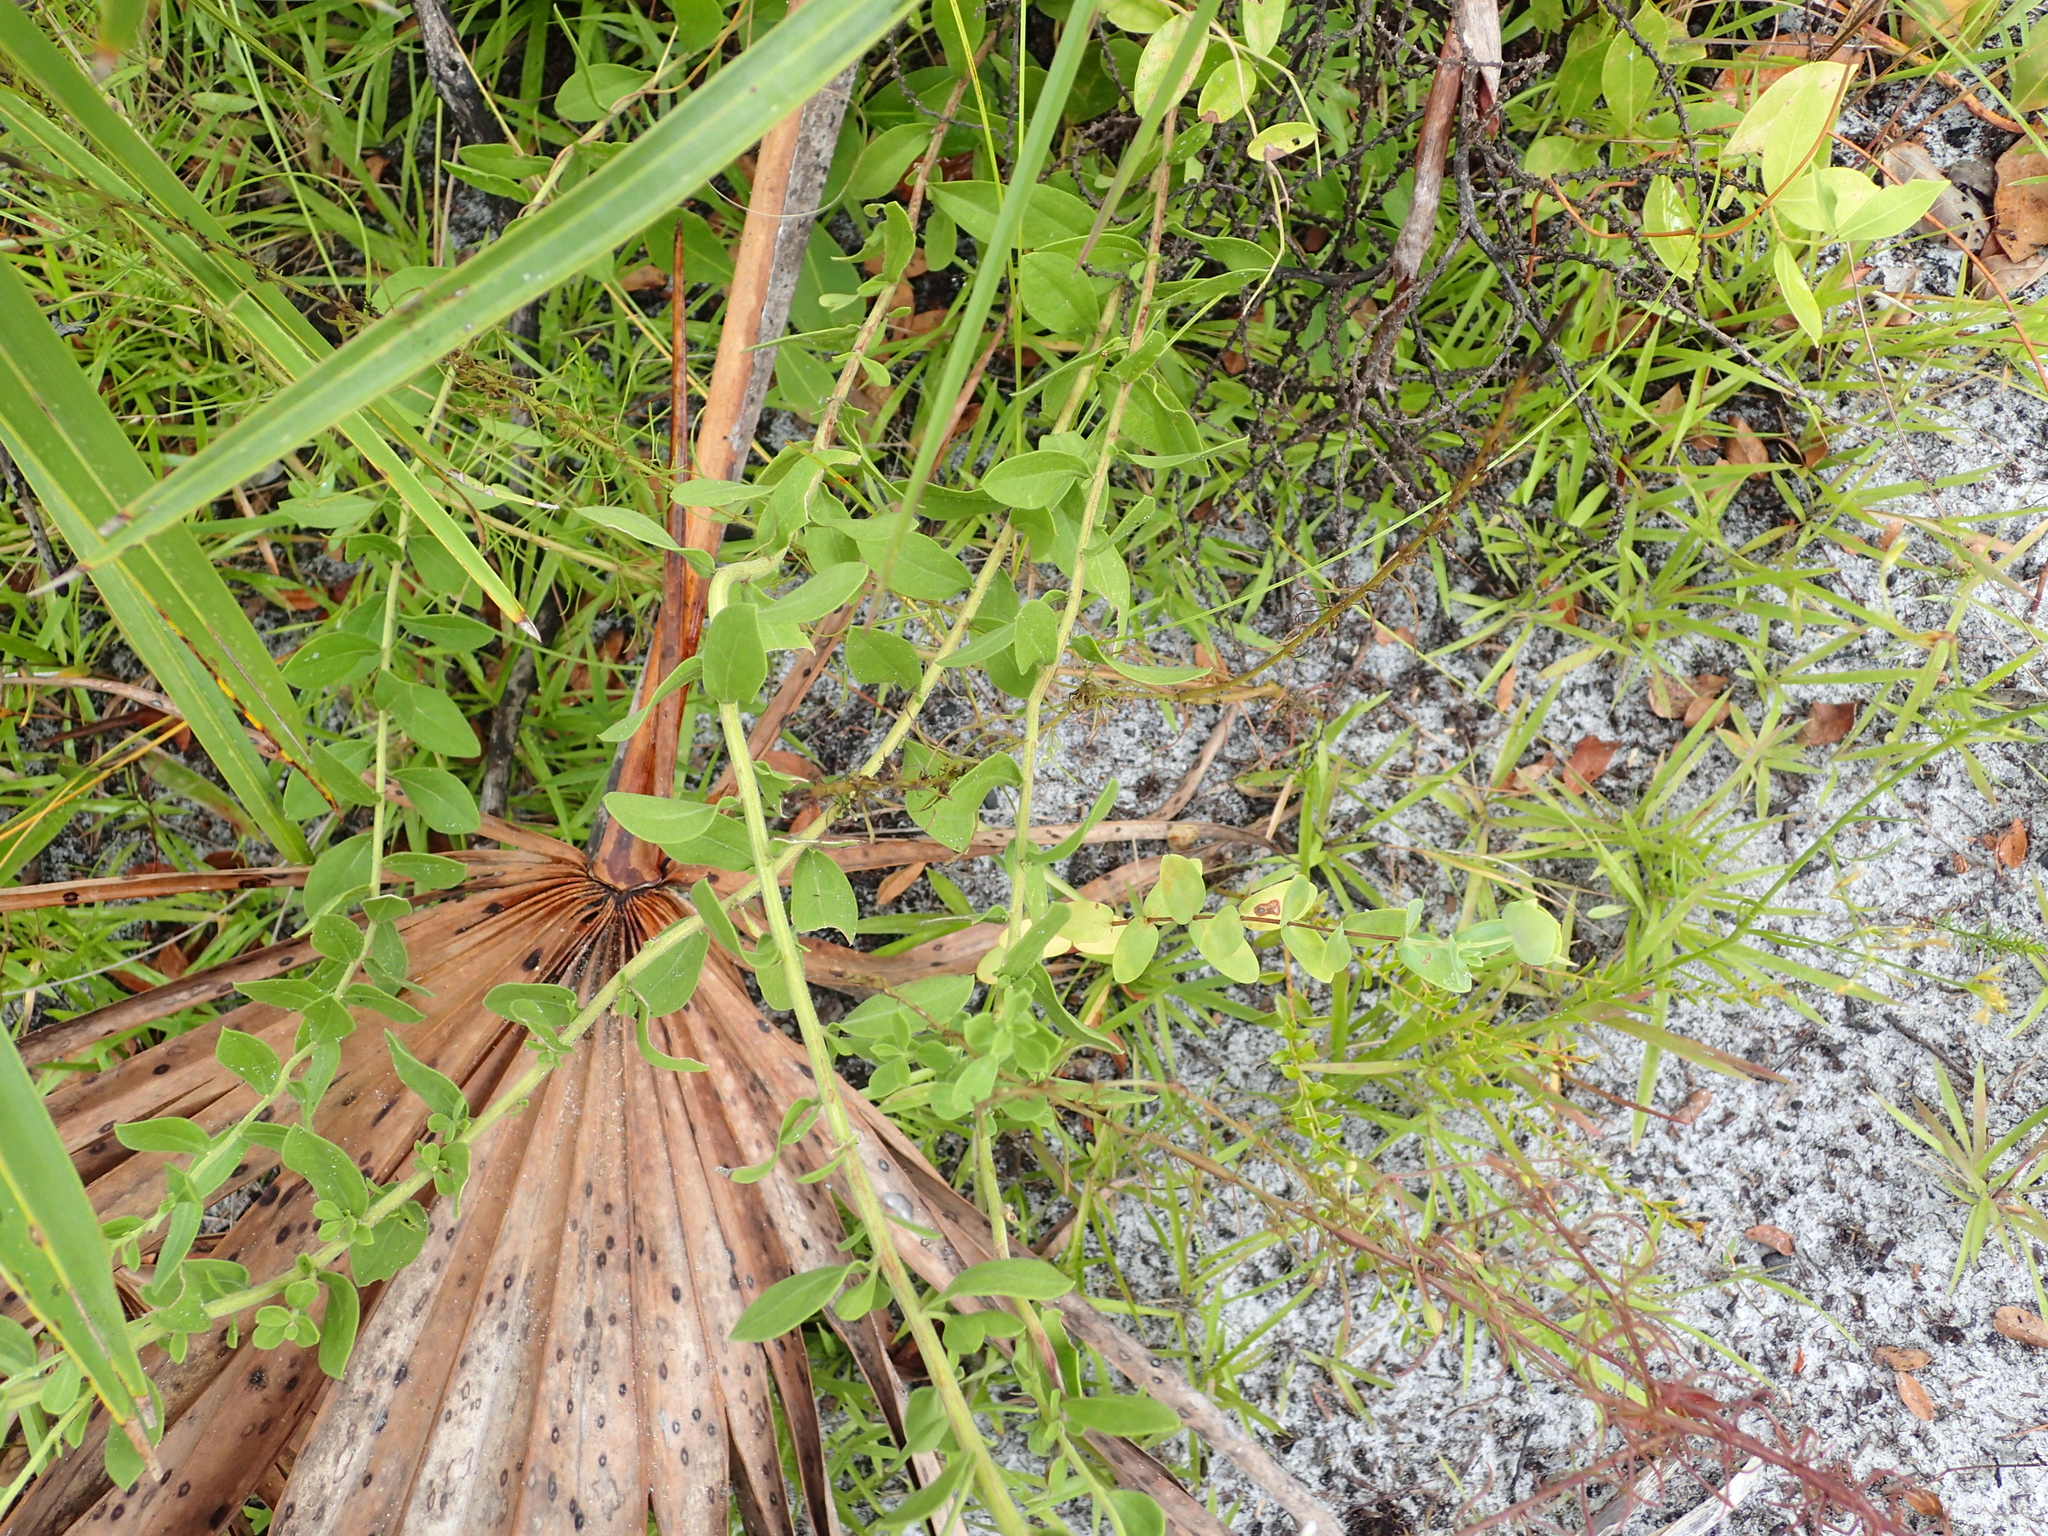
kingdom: Plantae
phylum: Tracheophyta
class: Magnoliopsida
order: Asterales
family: Asteraceae
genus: Sericocarpus
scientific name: Sericocarpus tortifolius
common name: Dixie aster
